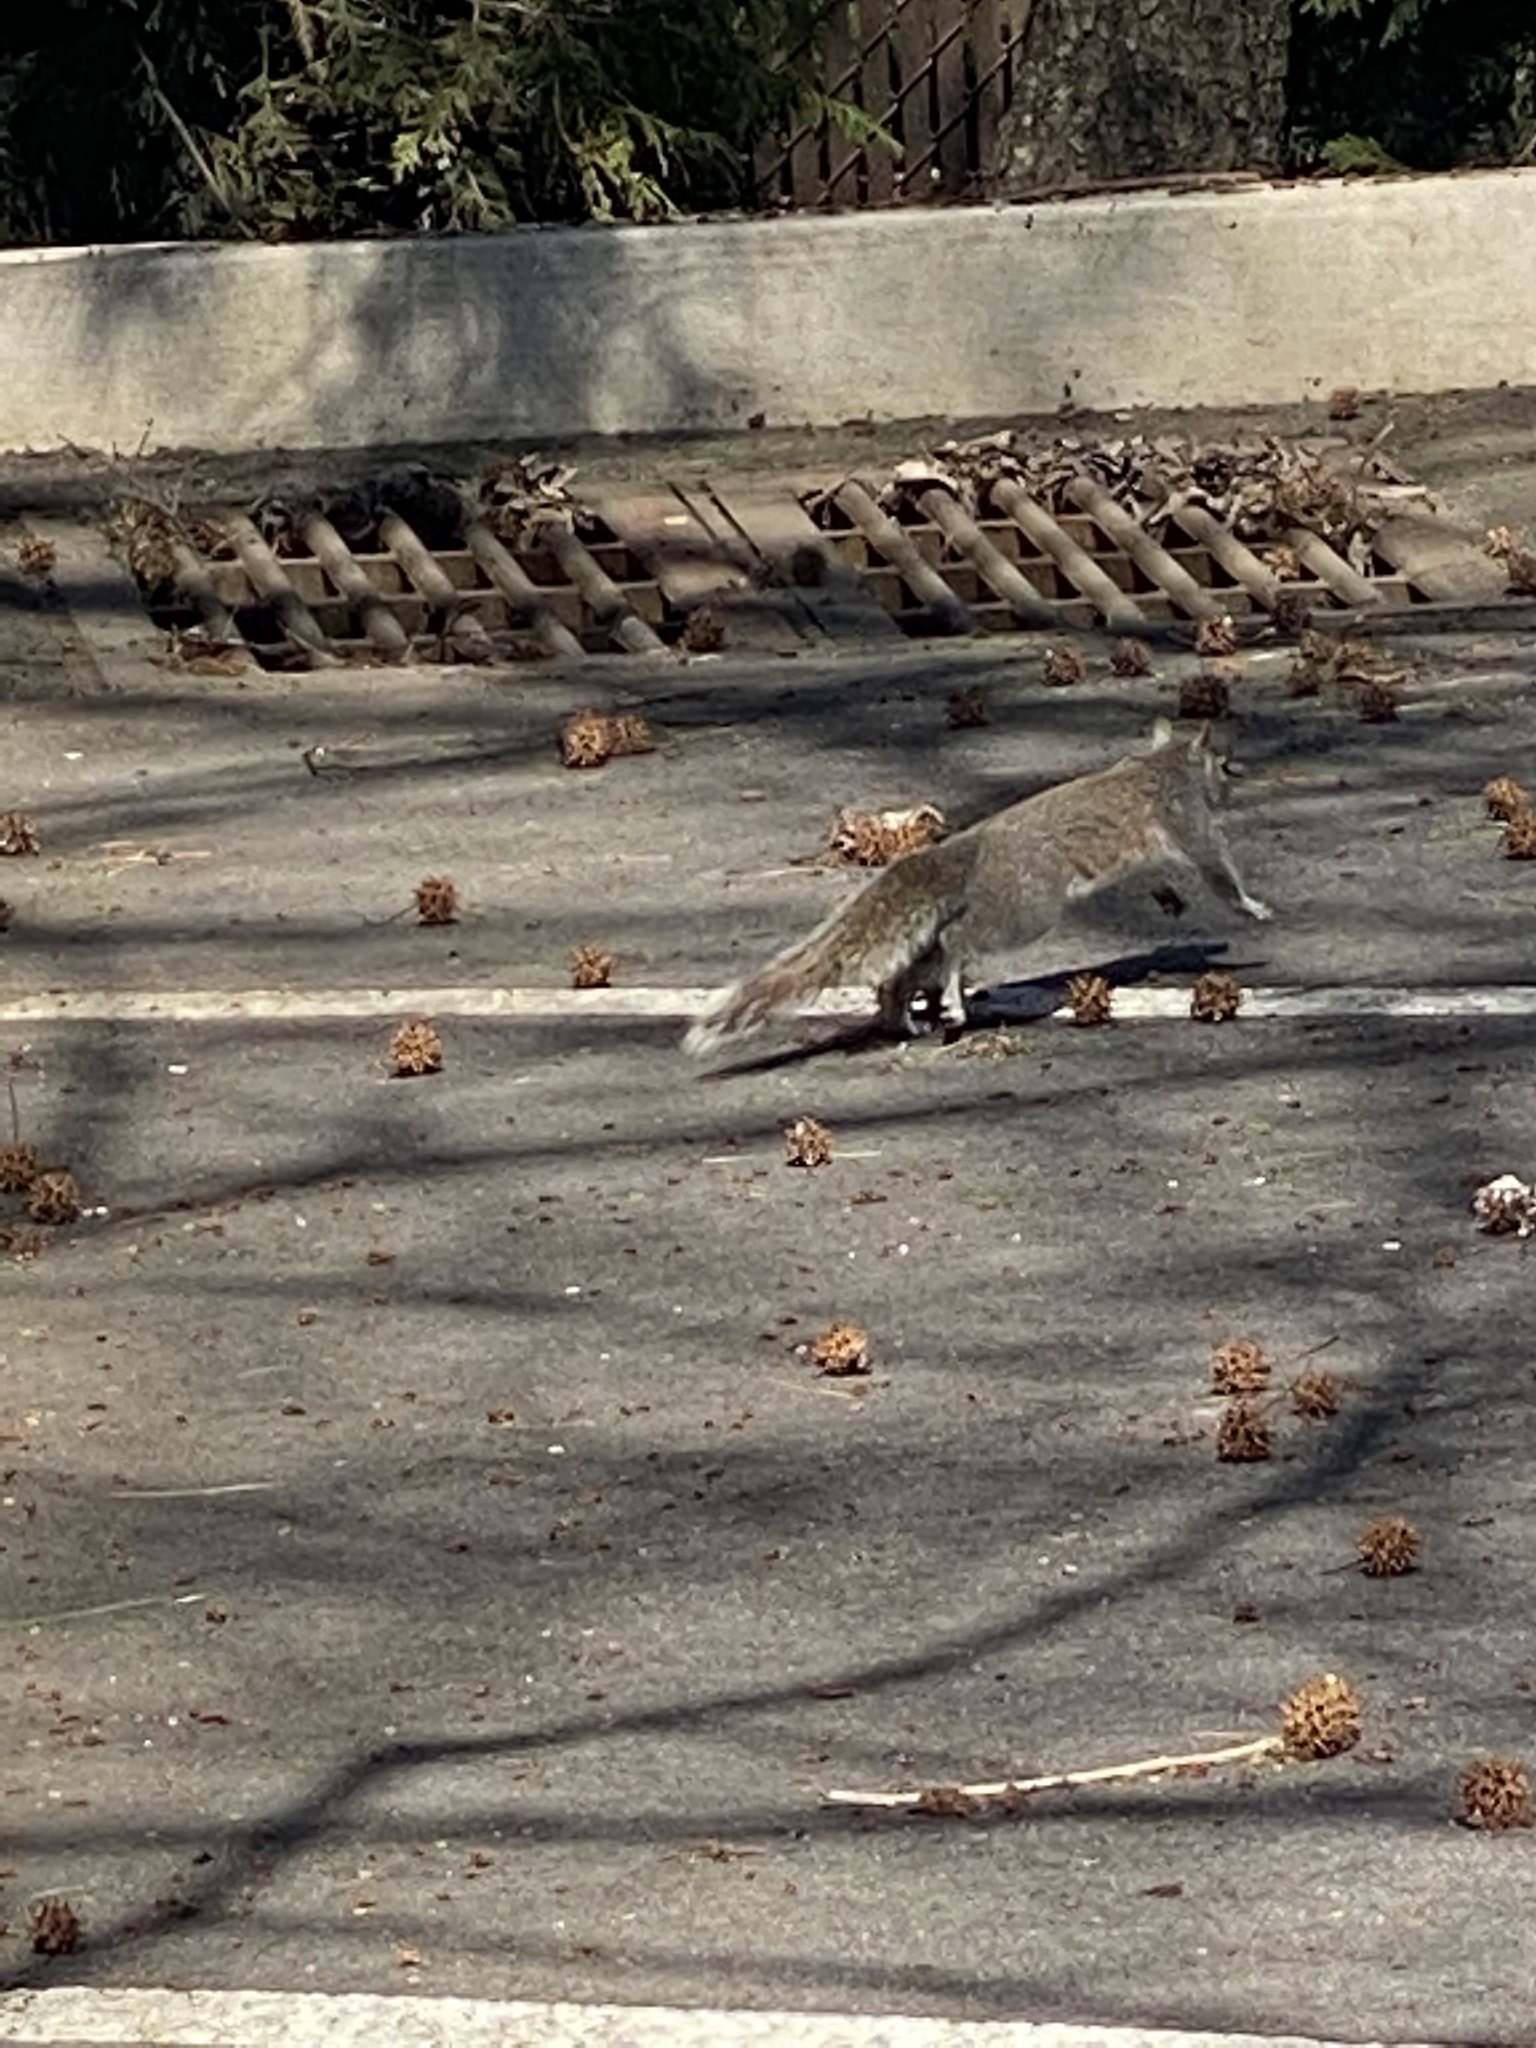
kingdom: Animalia
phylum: Chordata
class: Mammalia
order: Rodentia
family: Sciuridae
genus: Sciurus
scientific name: Sciurus carolinensis
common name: Eastern gray squirrel
